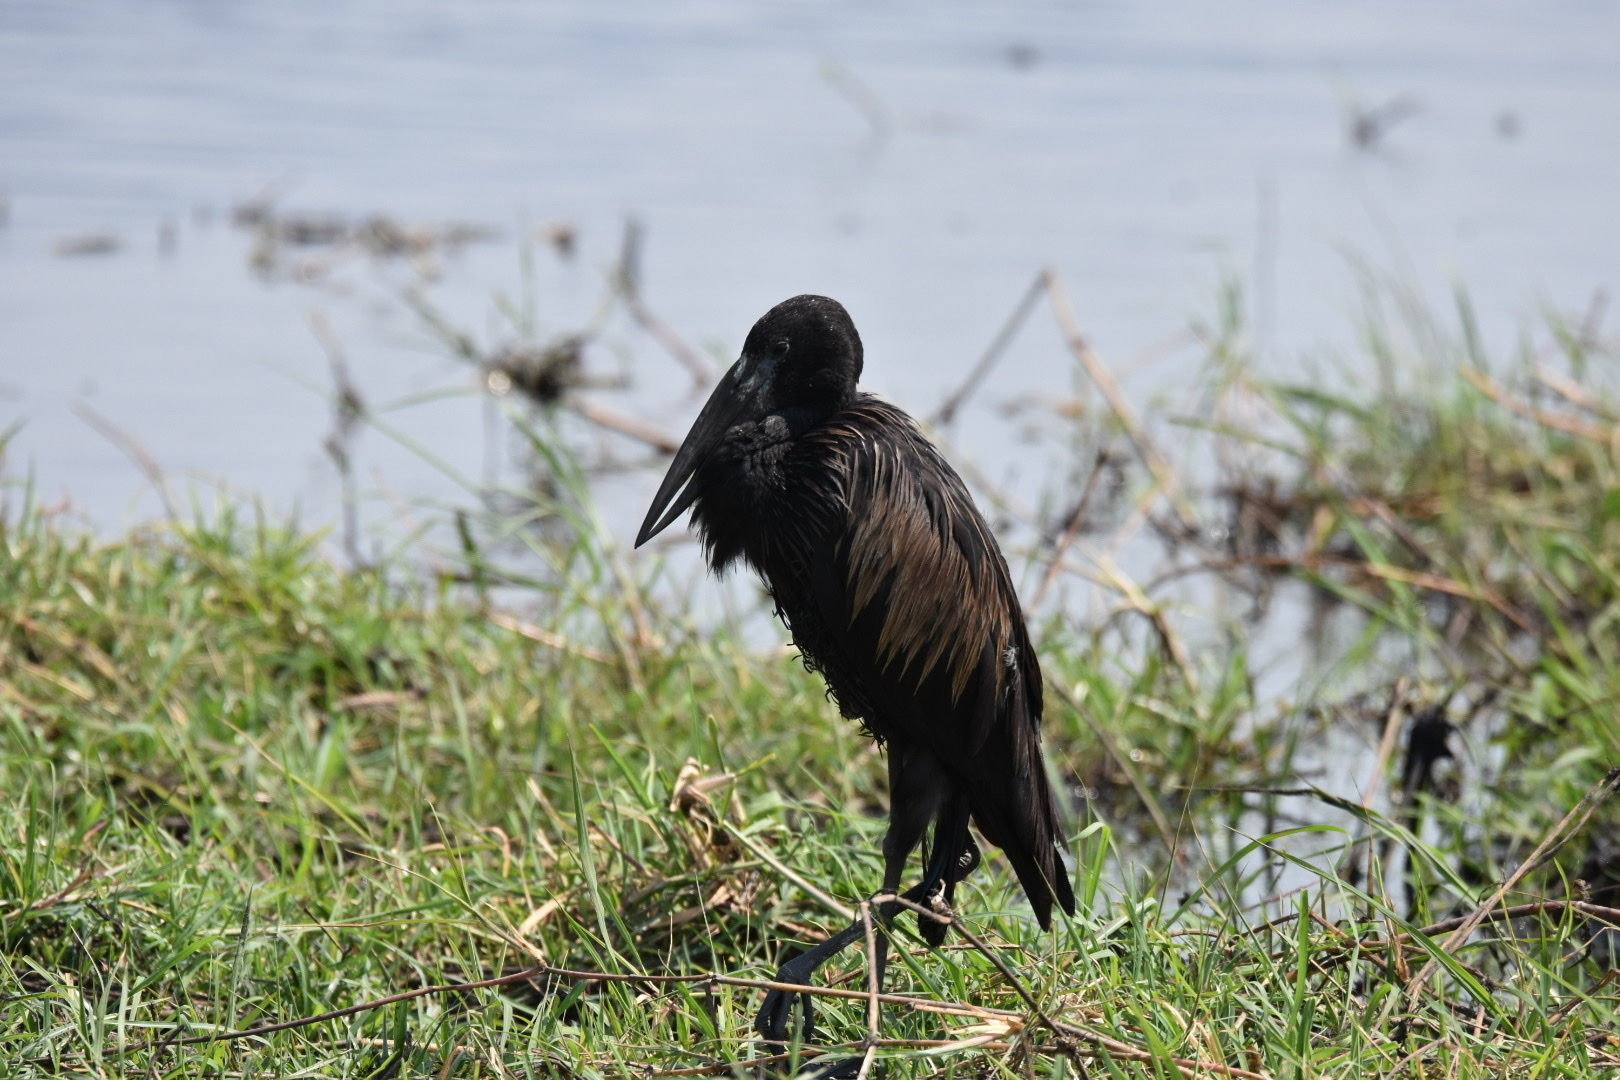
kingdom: Animalia
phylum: Chordata
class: Aves
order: Ciconiiformes
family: Ciconiidae
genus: Anastomus
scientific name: Anastomus lamelligerus
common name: African openbill
